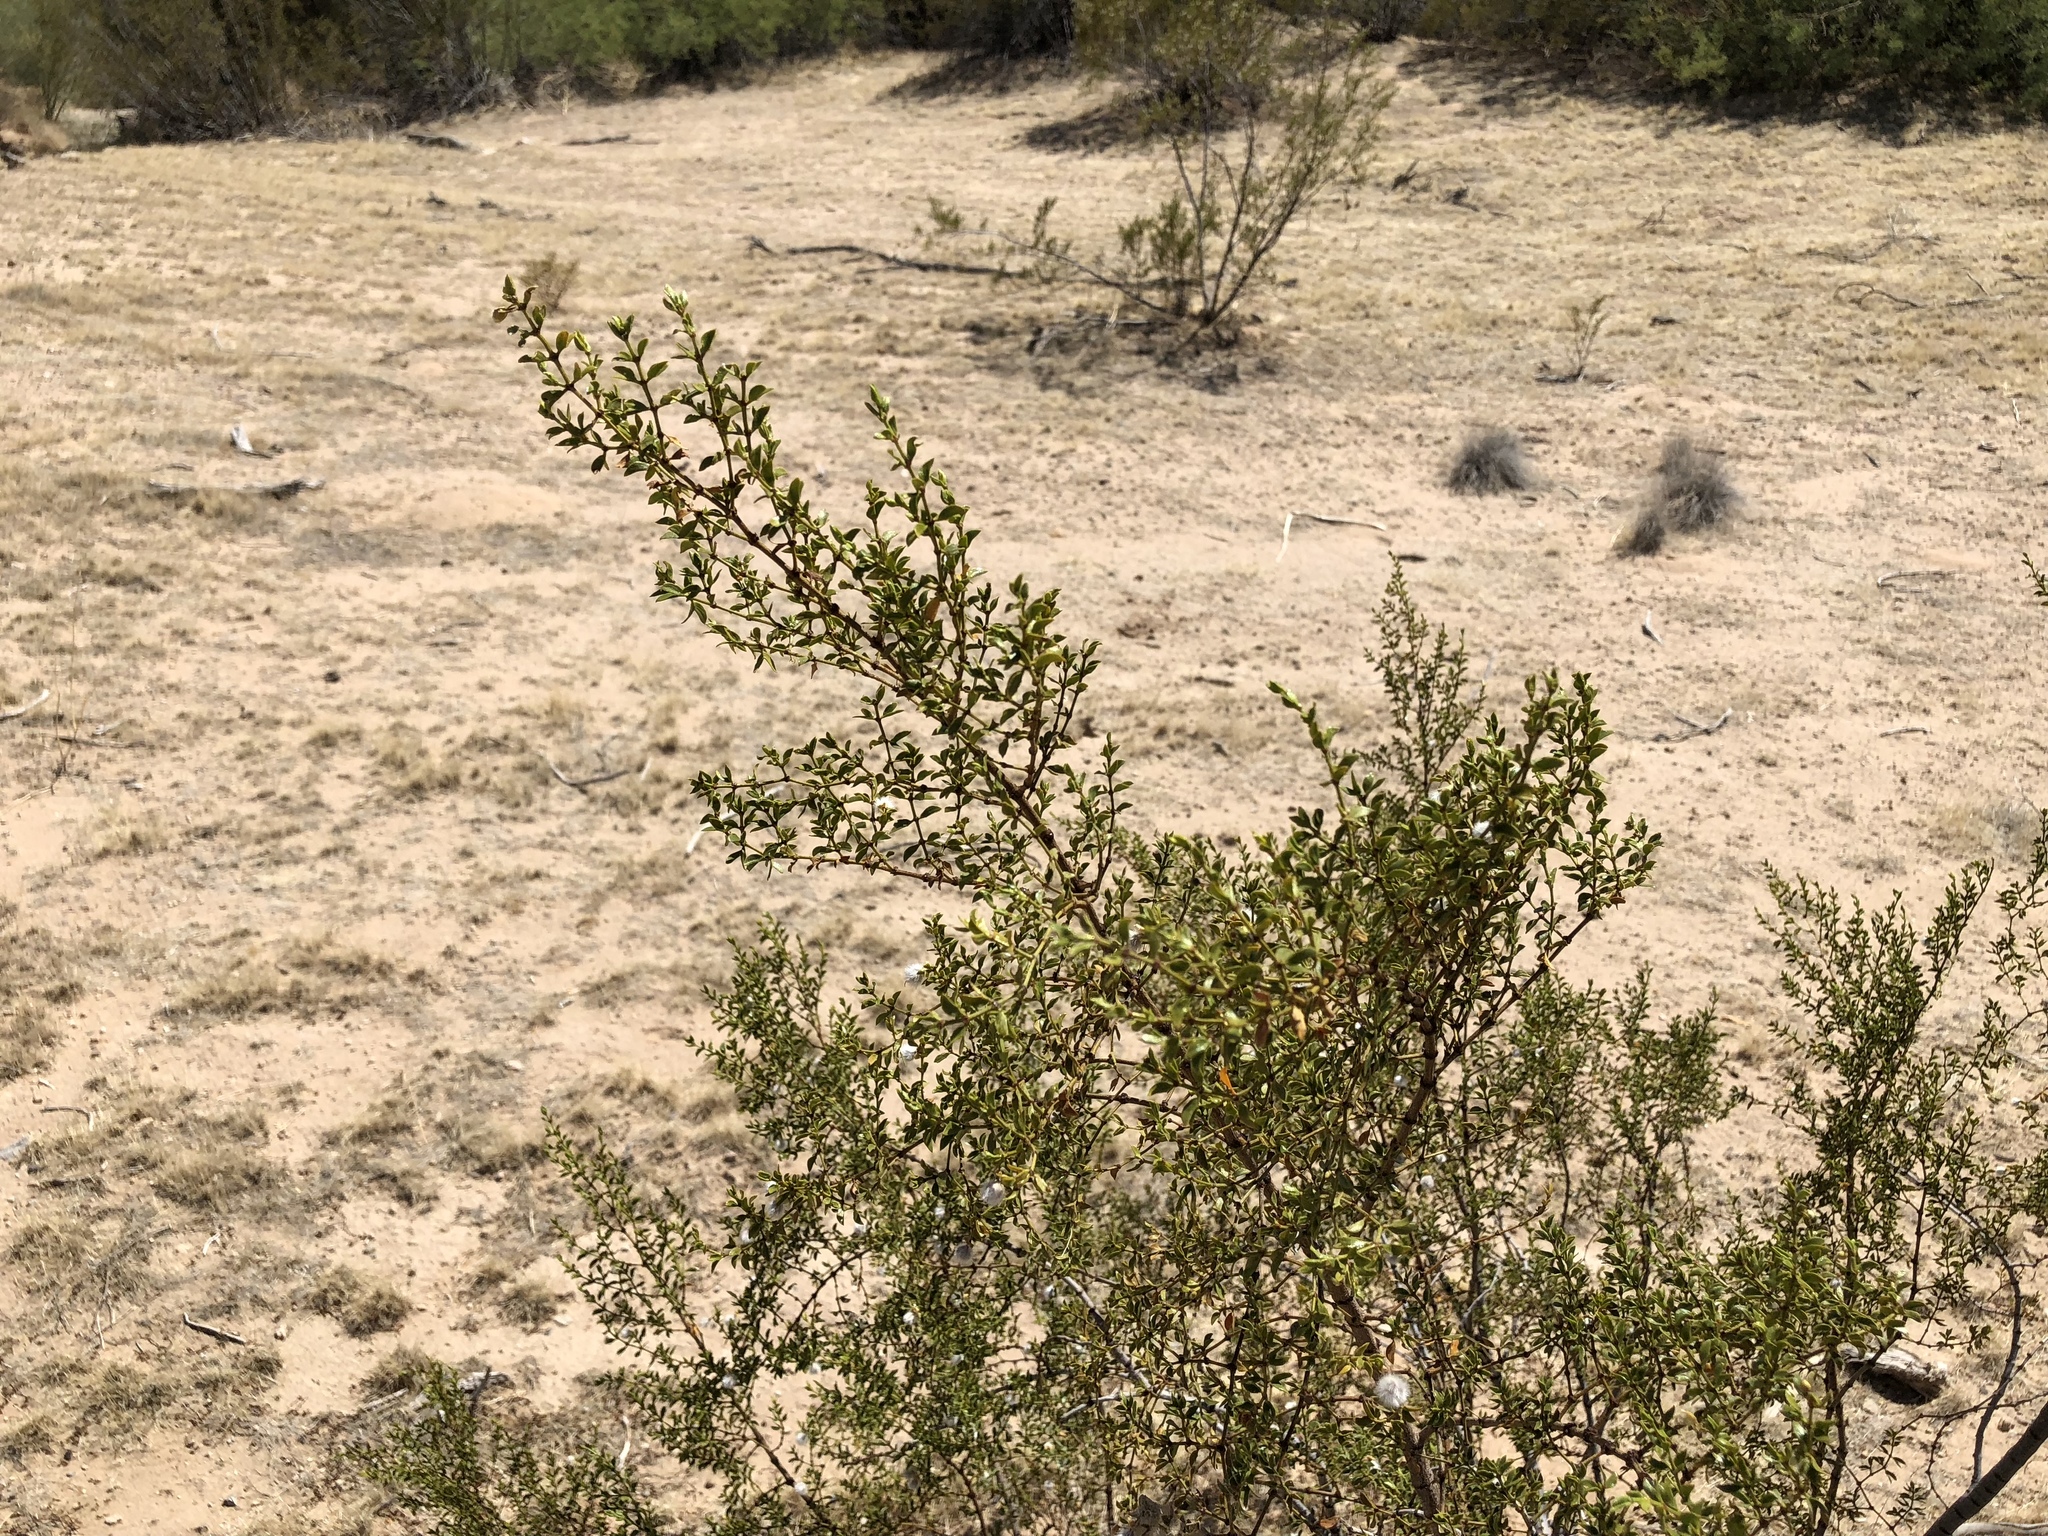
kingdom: Plantae
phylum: Tracheophyta
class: Magnoliopsida
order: Zygophyllales
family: Zygophyllaceae
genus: Larrea
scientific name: Larrea tridentata
